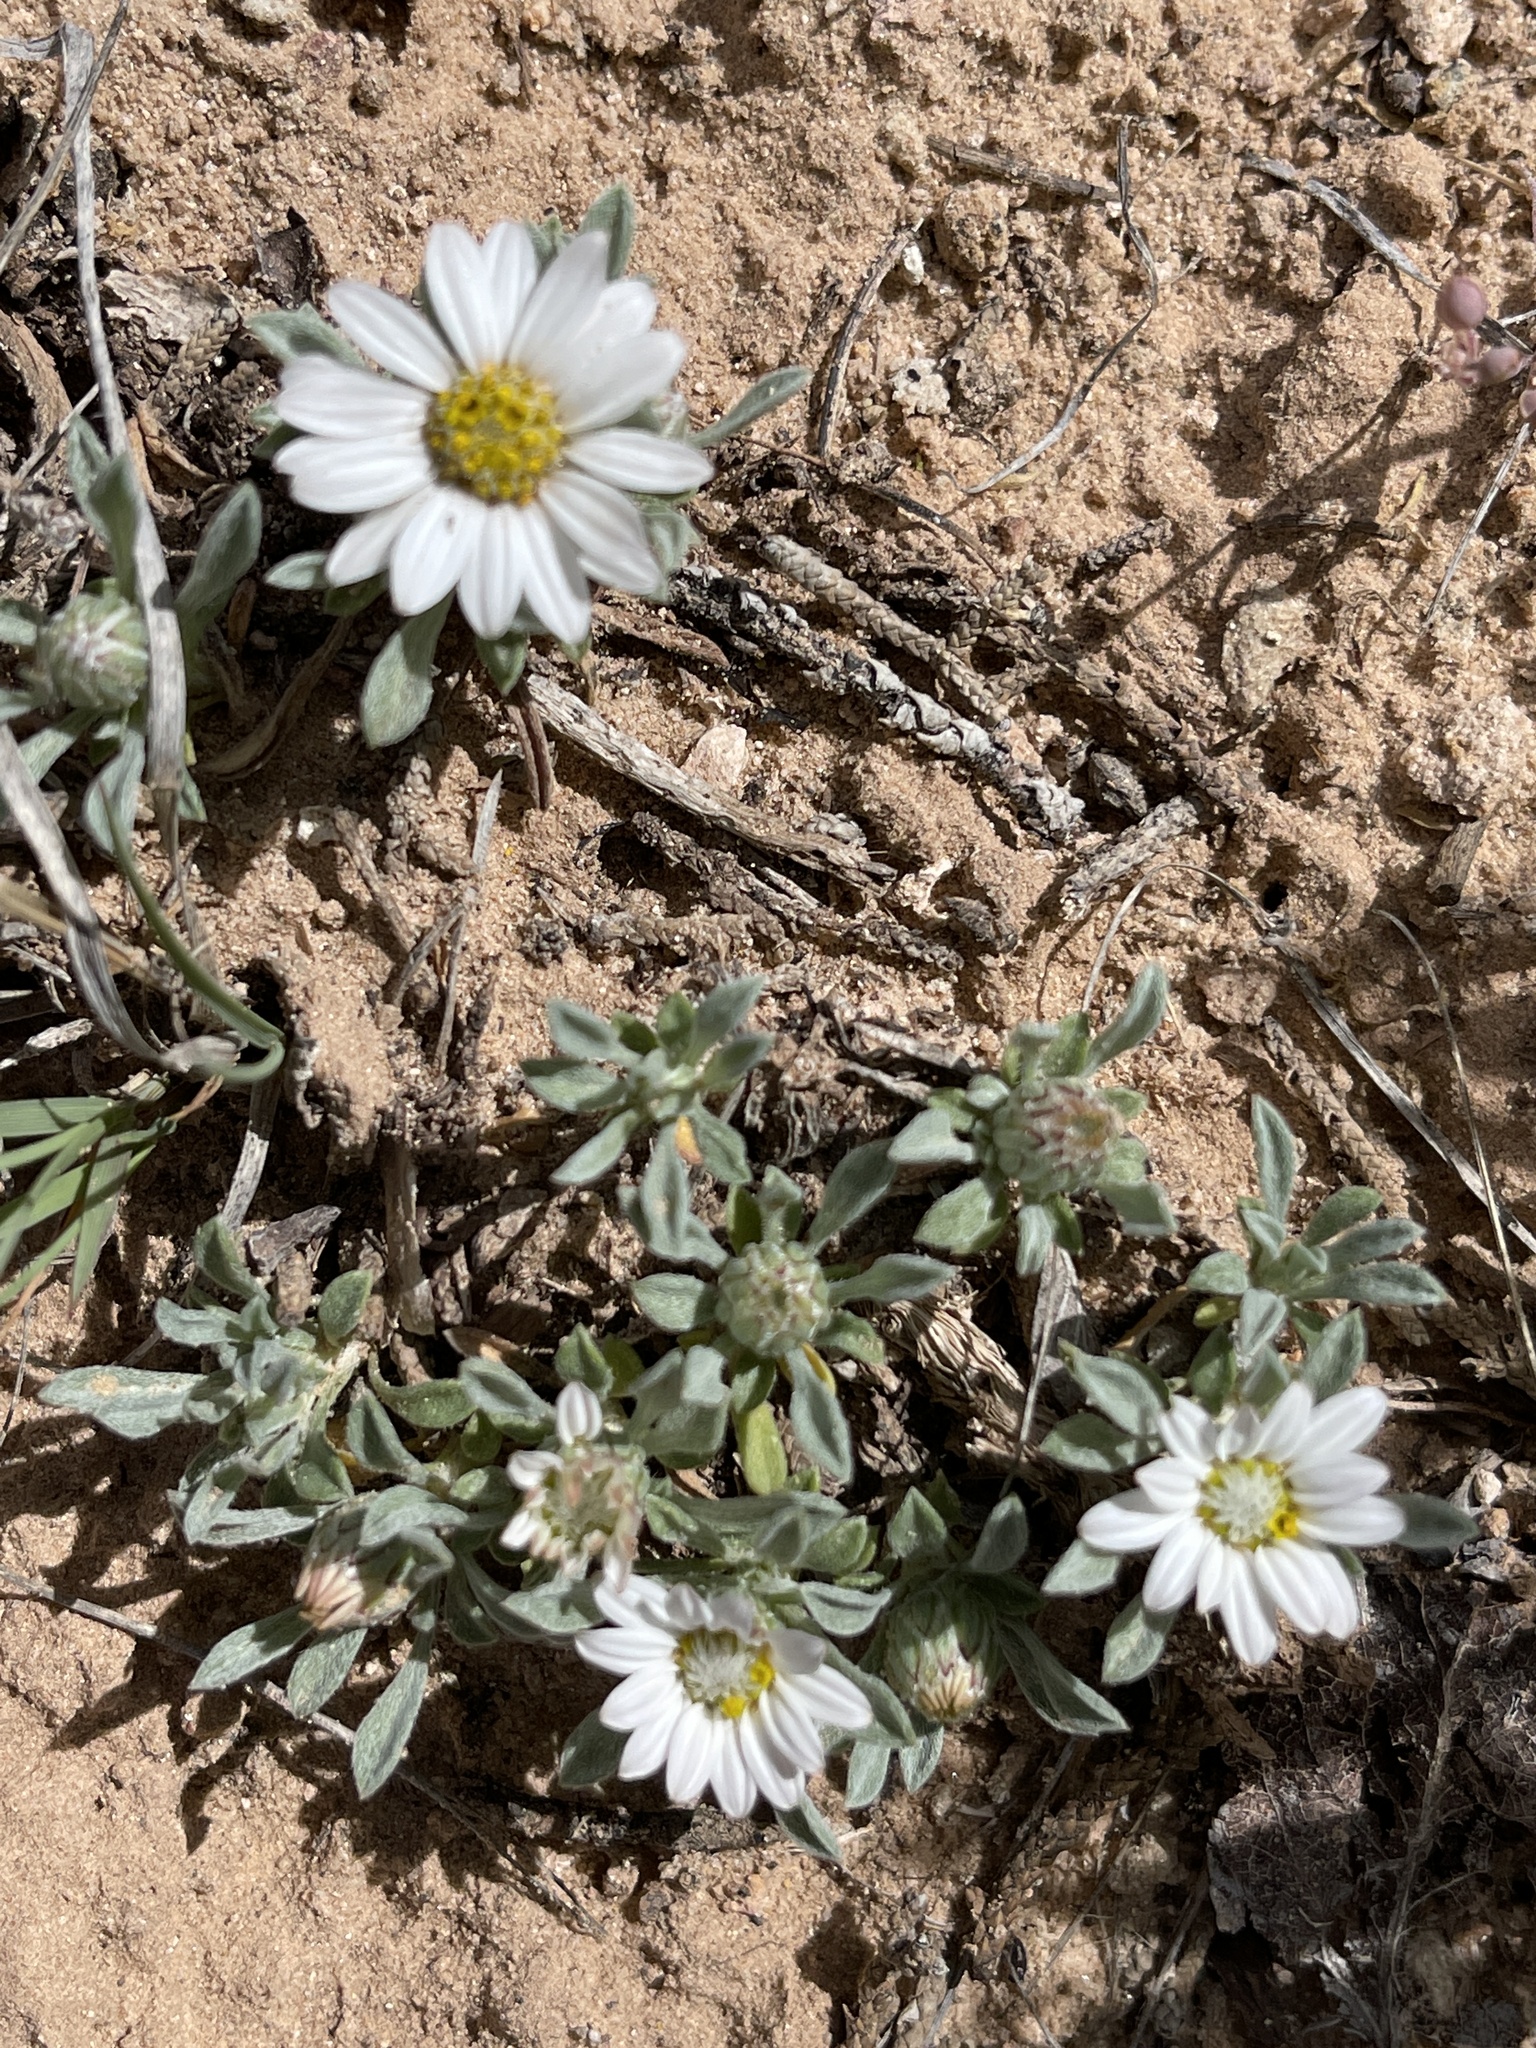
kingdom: Plantae
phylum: Tracheophyta
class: Magnoliopsida
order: Asterales
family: Asteraceae
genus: Townsendia
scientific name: Townsendia incana
